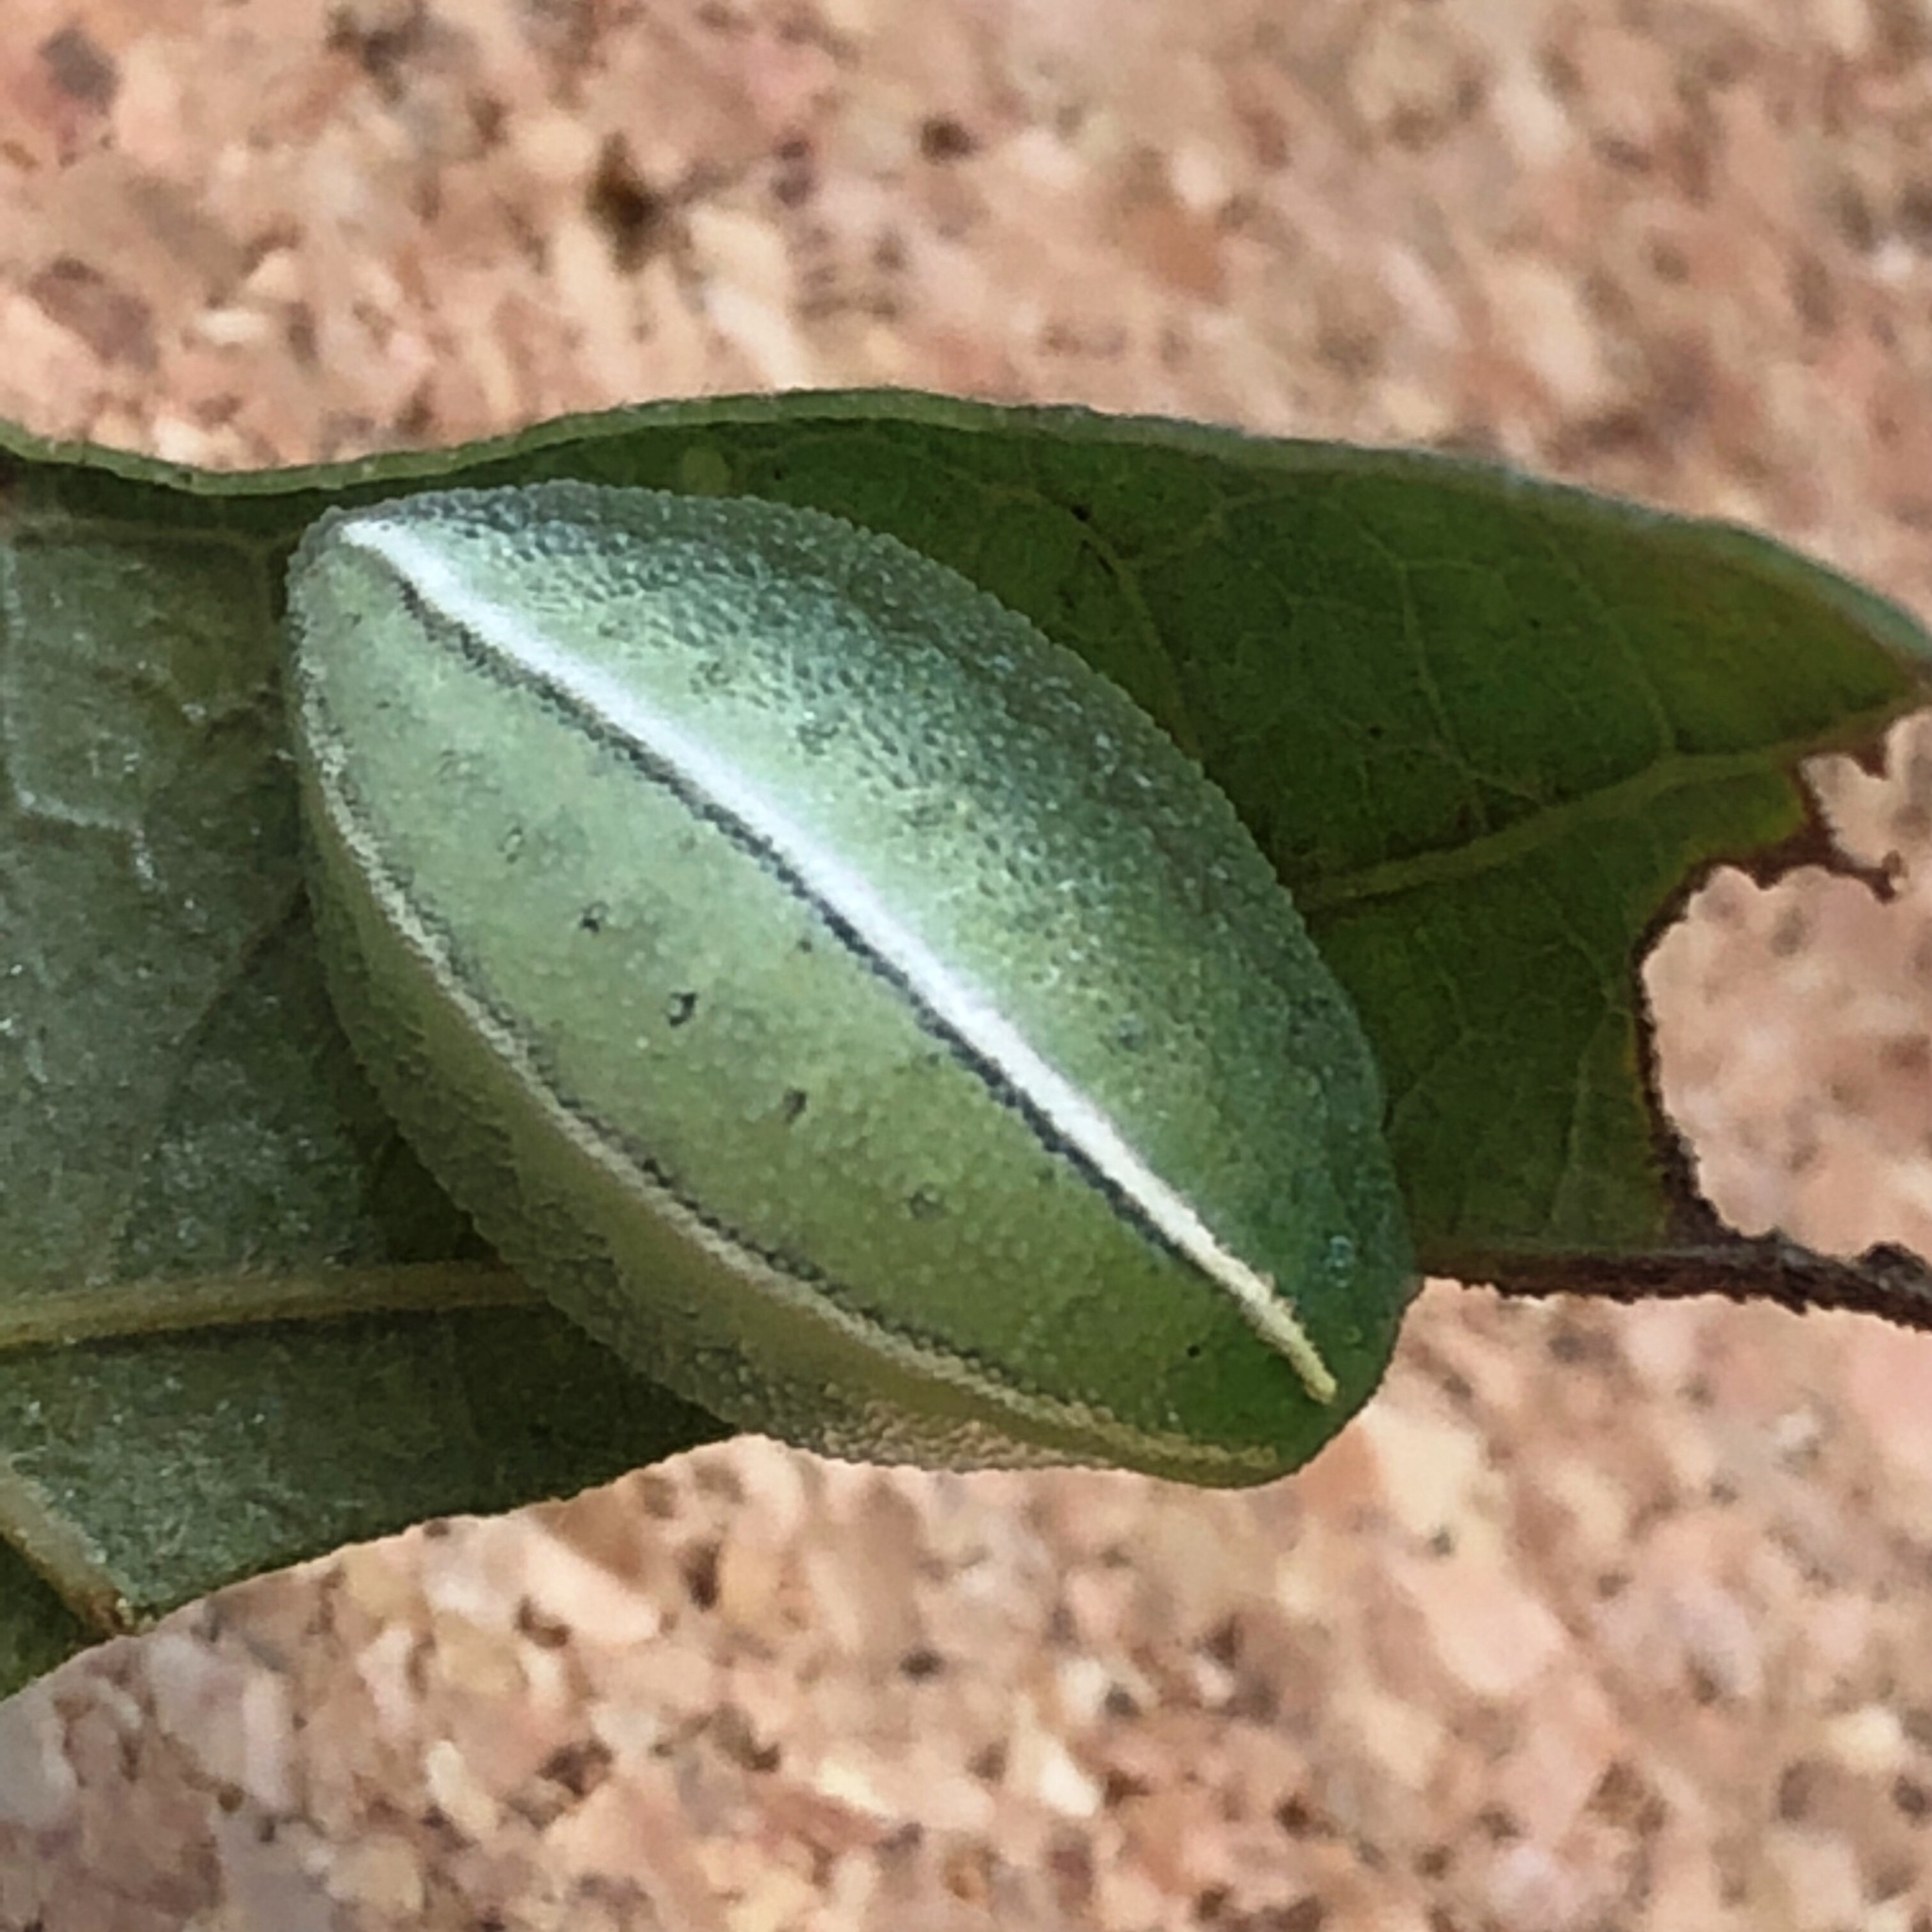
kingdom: Animalia
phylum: Arthropoda
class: Insecta
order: Lepidoptera
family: Limacodidae
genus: Apoda
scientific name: Apoda biguttata
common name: Shagreened slug moth
